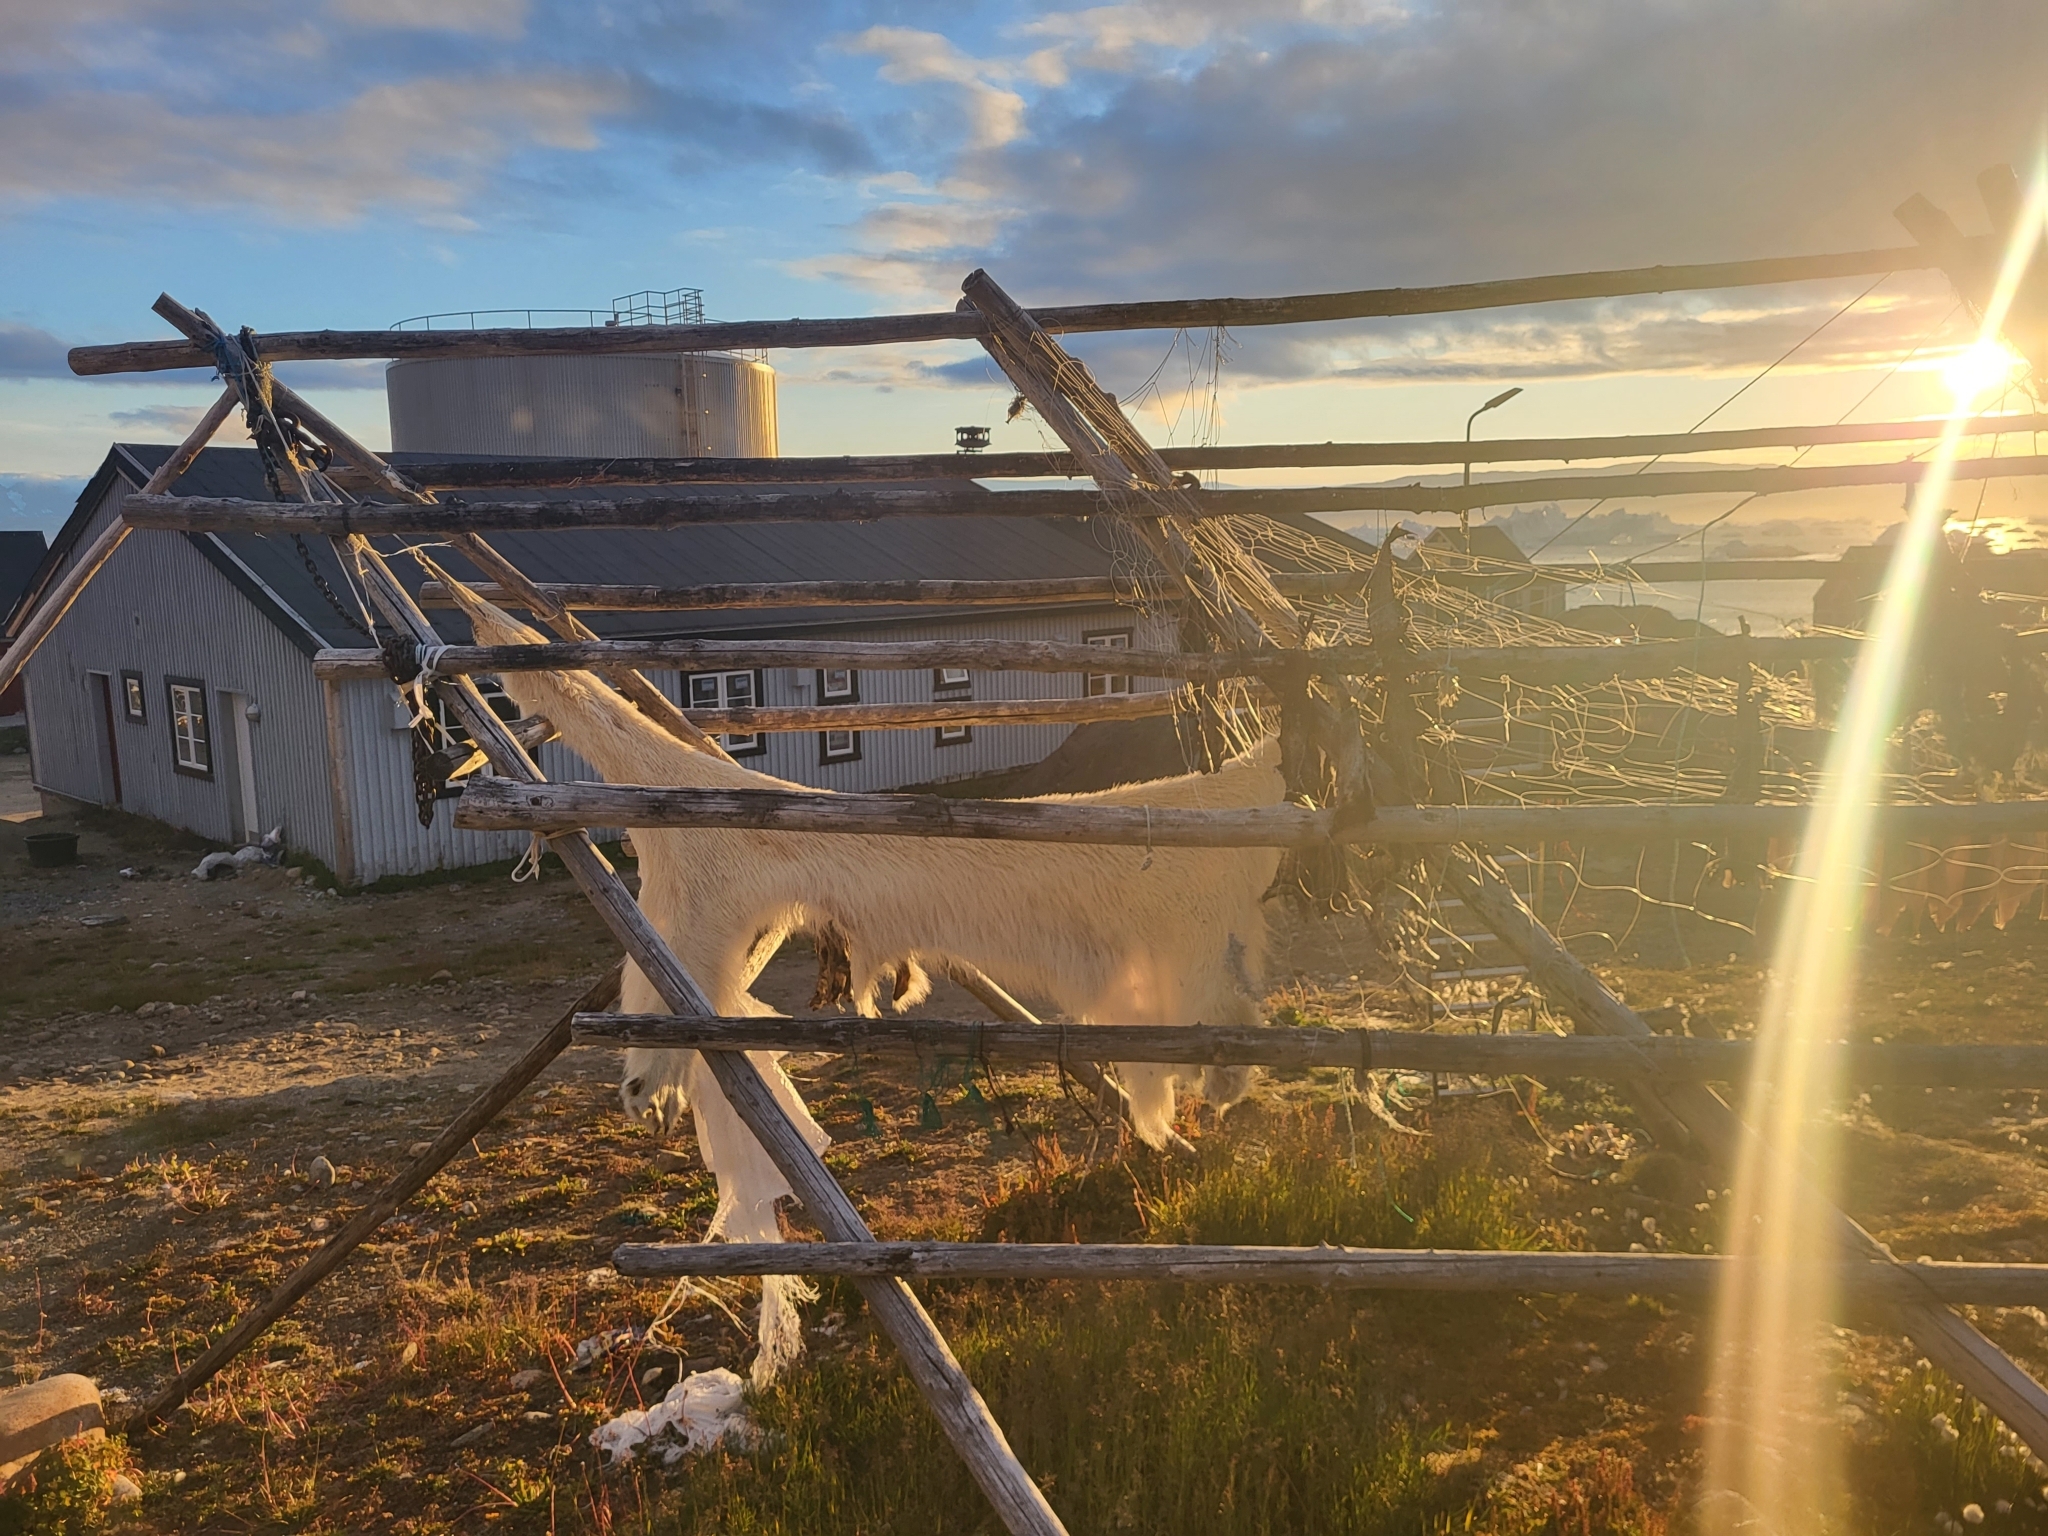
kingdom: Animalia
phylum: Chordata
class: Mammalia
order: Carnivora
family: Ursidae
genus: Ursus
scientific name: Ursus maritimus
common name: Polar bear
